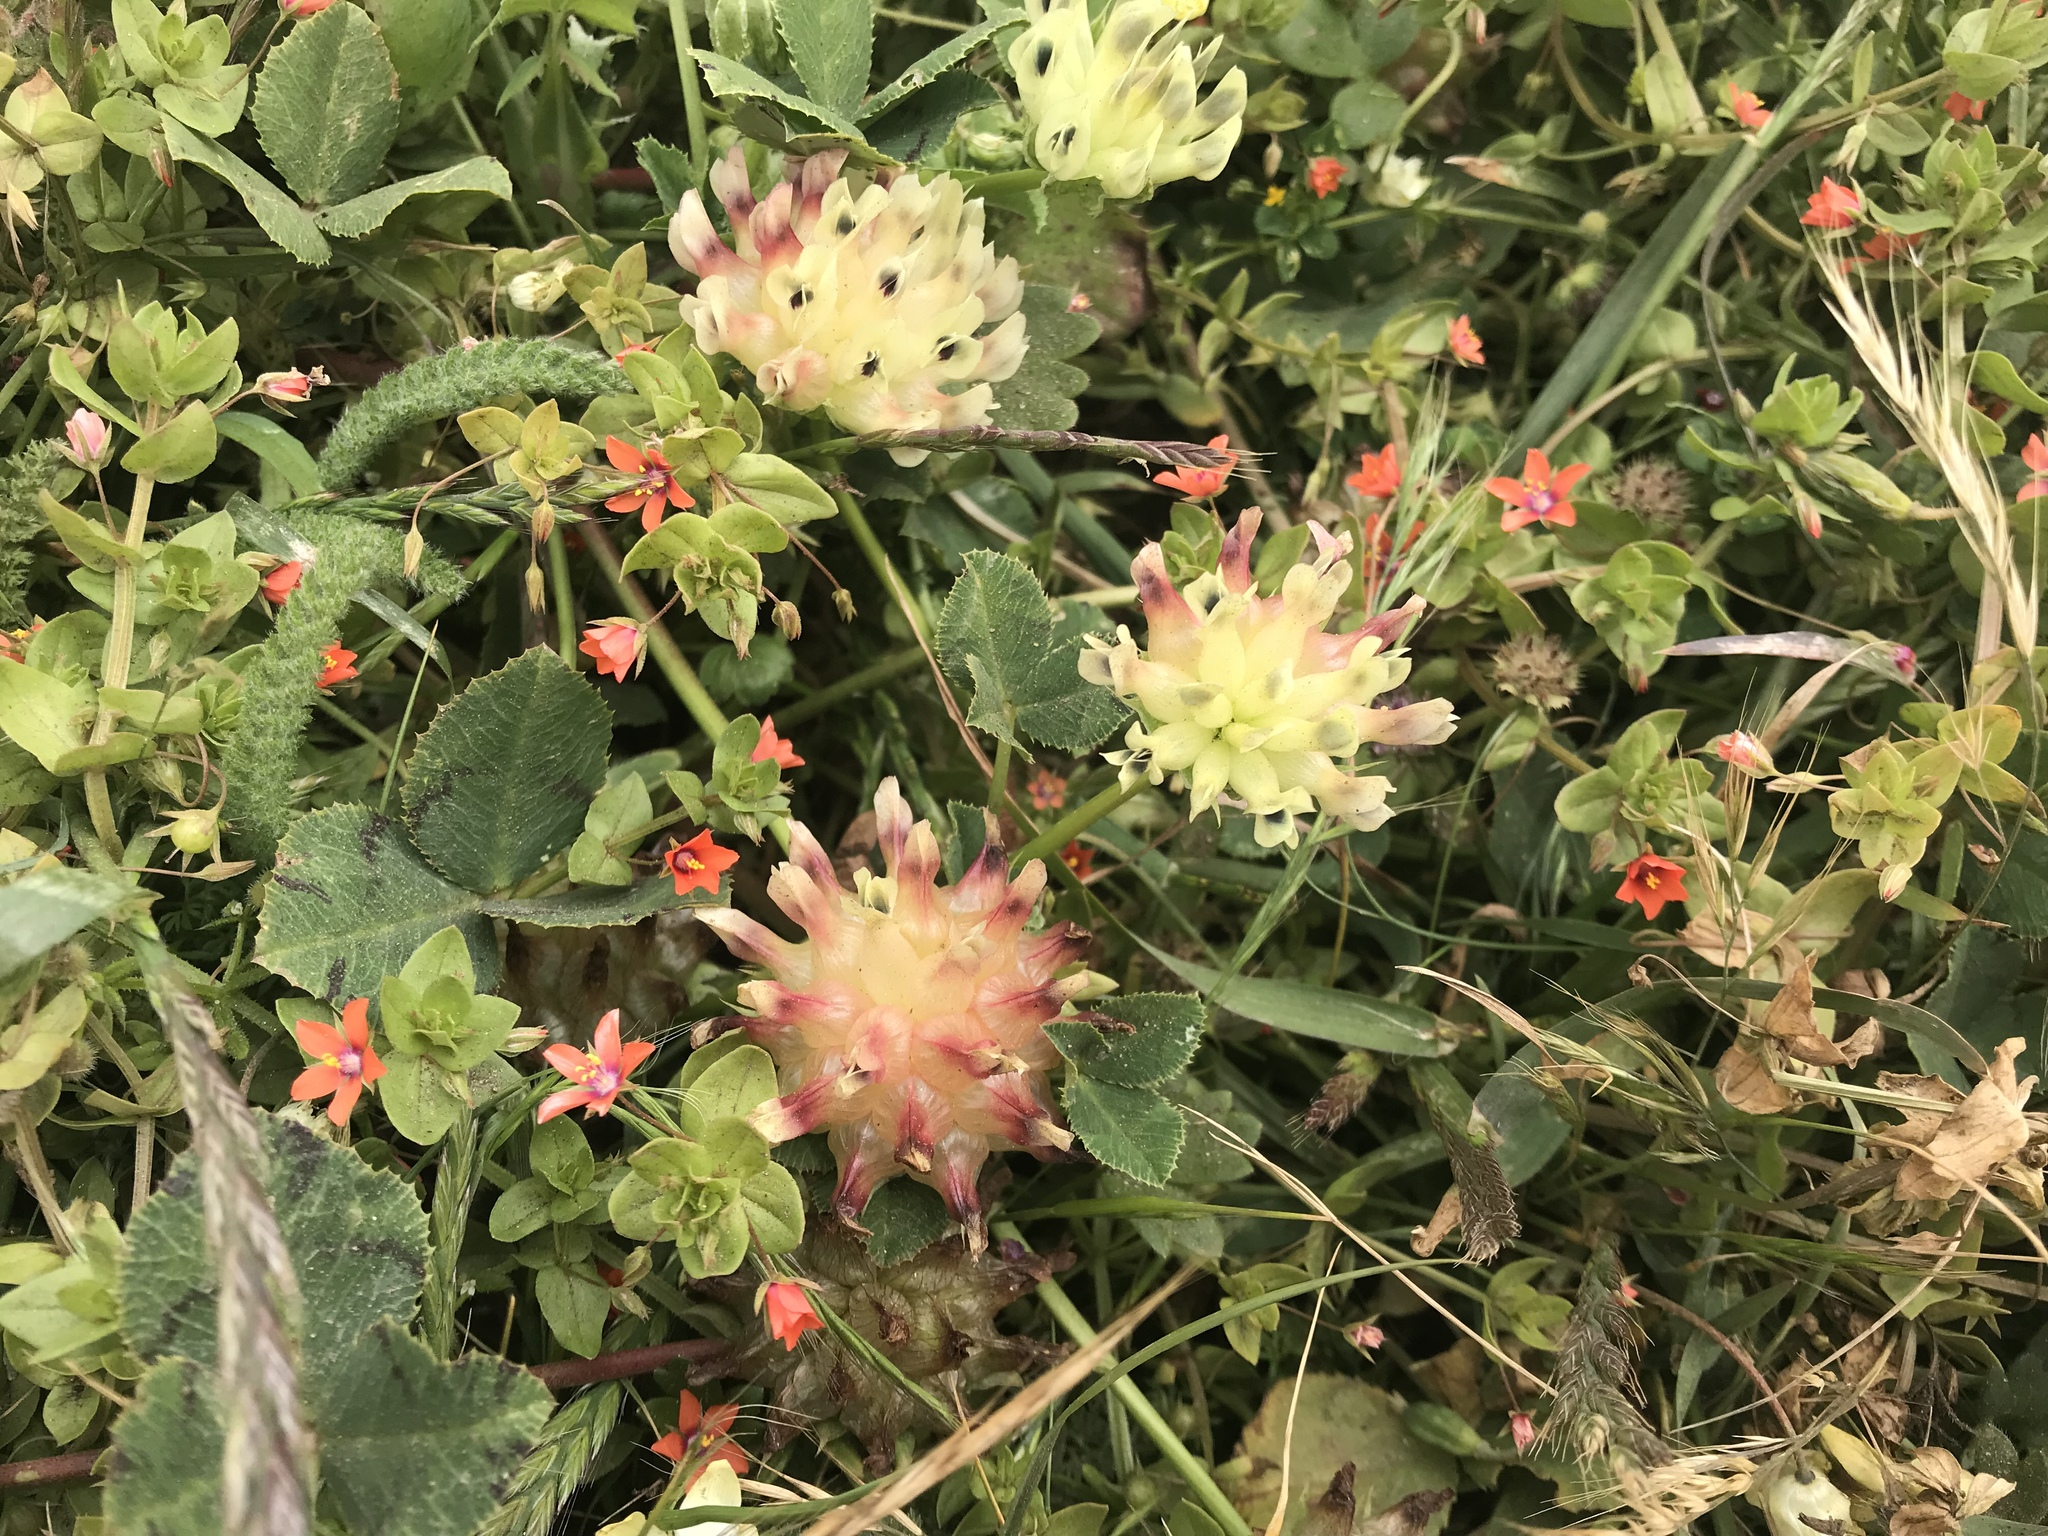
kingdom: Plantae
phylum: Tracheophyta
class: Magnoliopsida
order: Fabales
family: Fabaceae
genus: Trifolium
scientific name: Trifolium fucatum
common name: Puff clover
